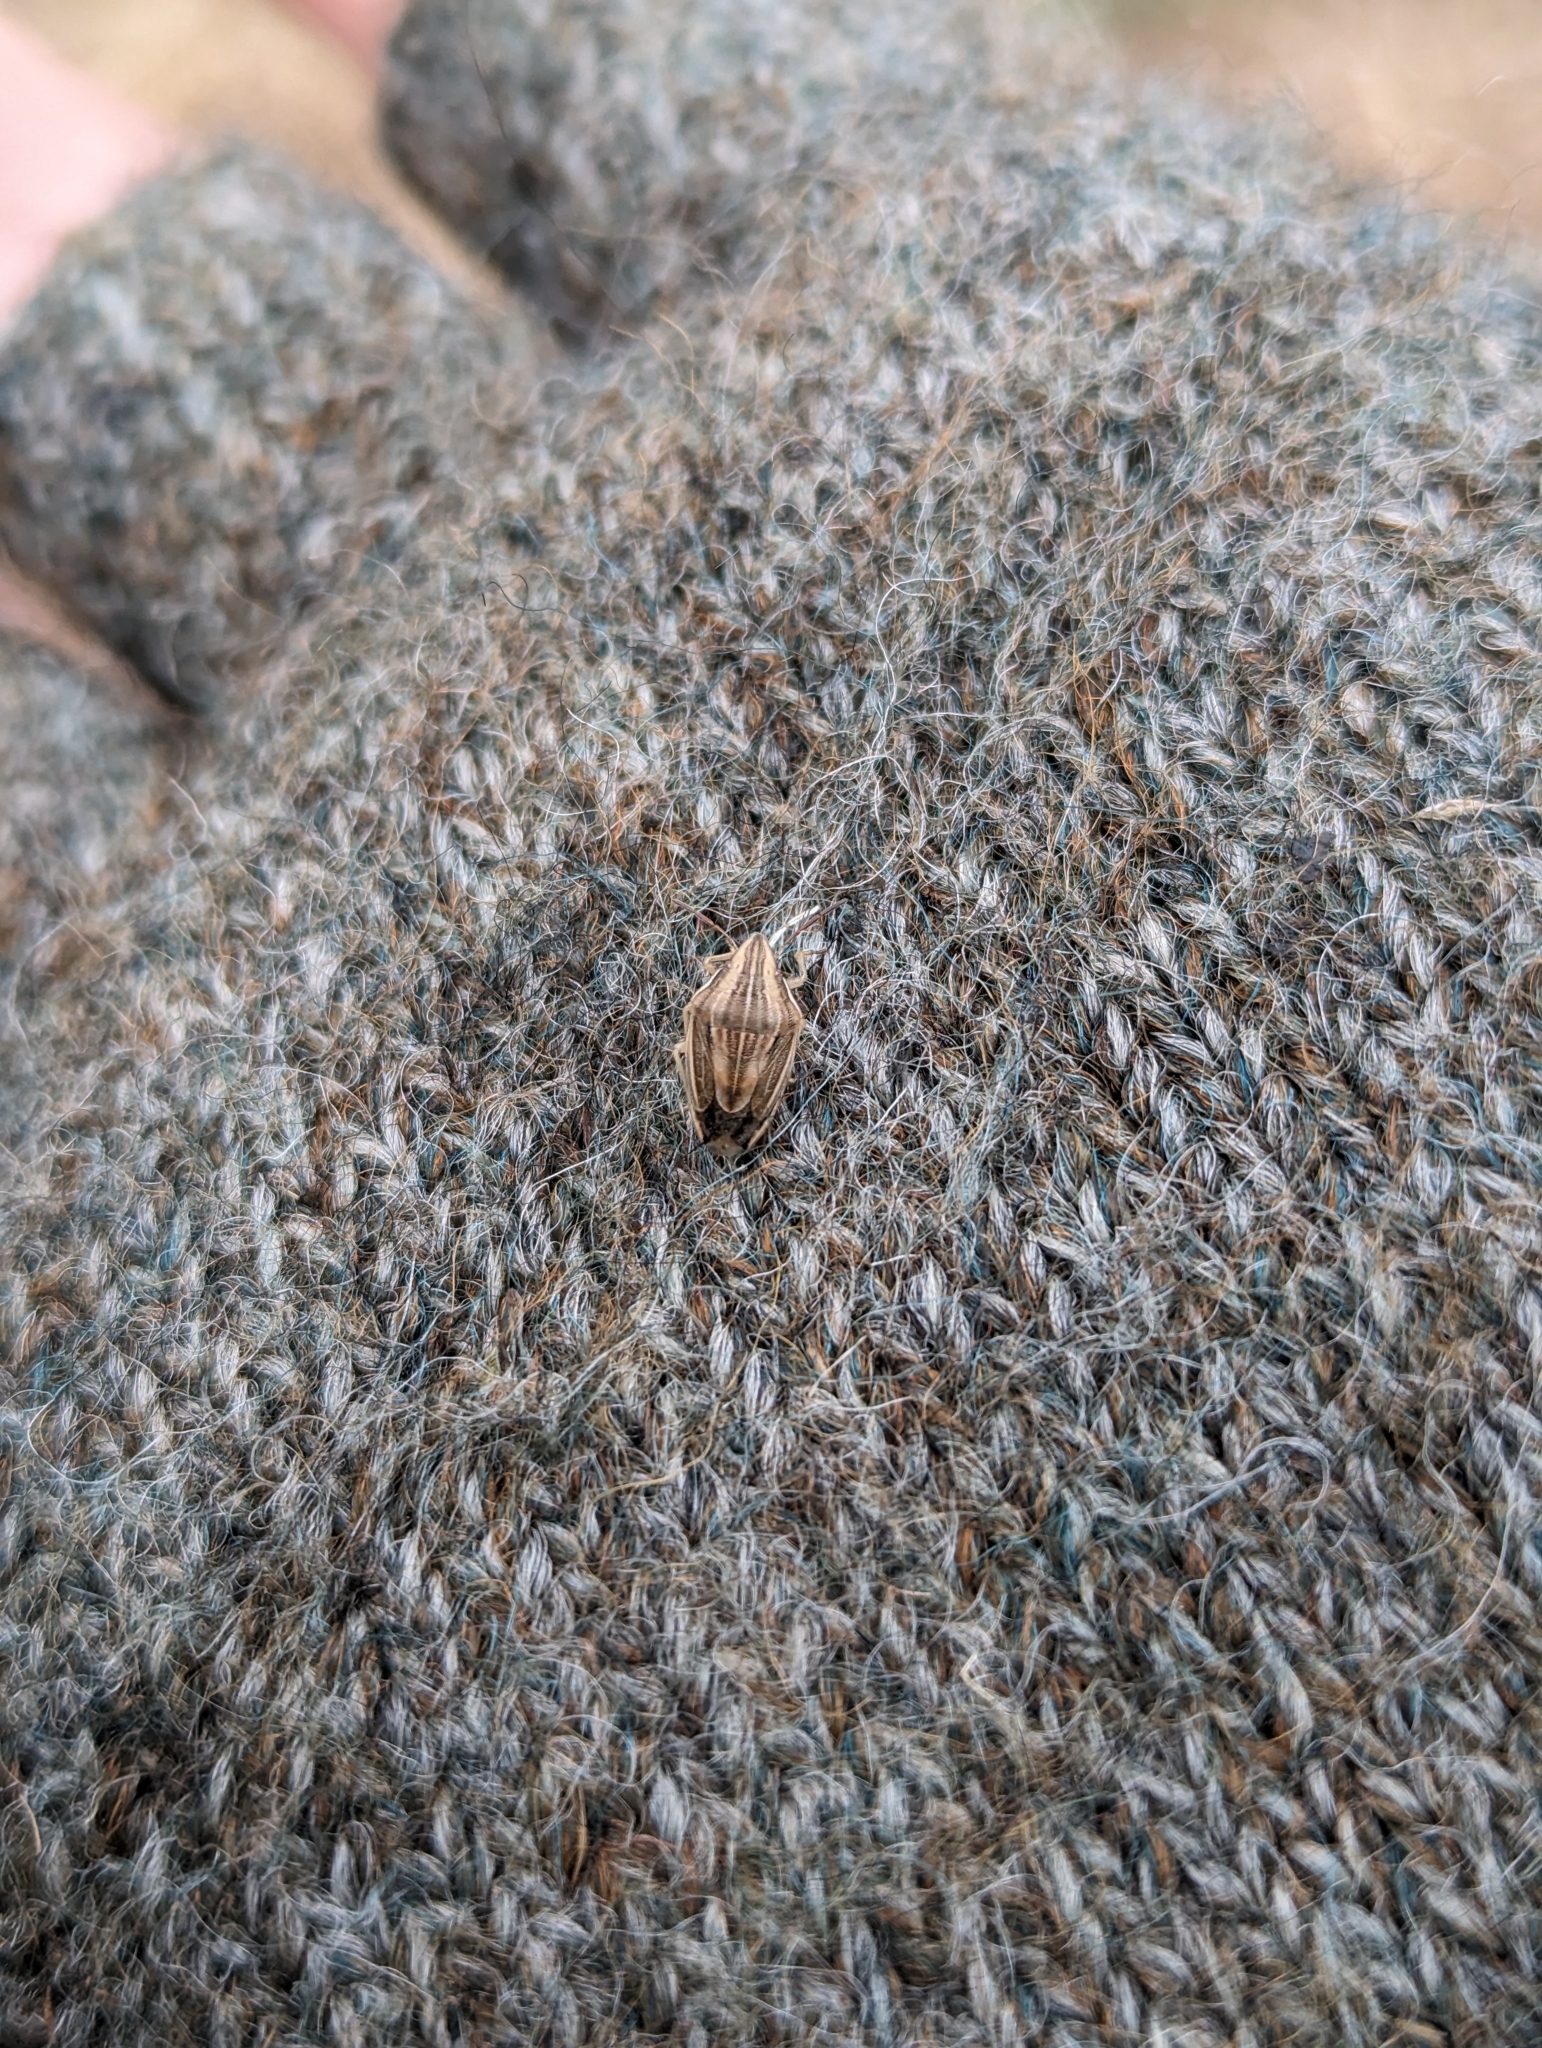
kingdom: Animalia
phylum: Arthropoda
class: Insecta
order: Hemiptera
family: Pentatomidae
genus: Aelia
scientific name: Aelia acuminata
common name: Bishop's mitre
